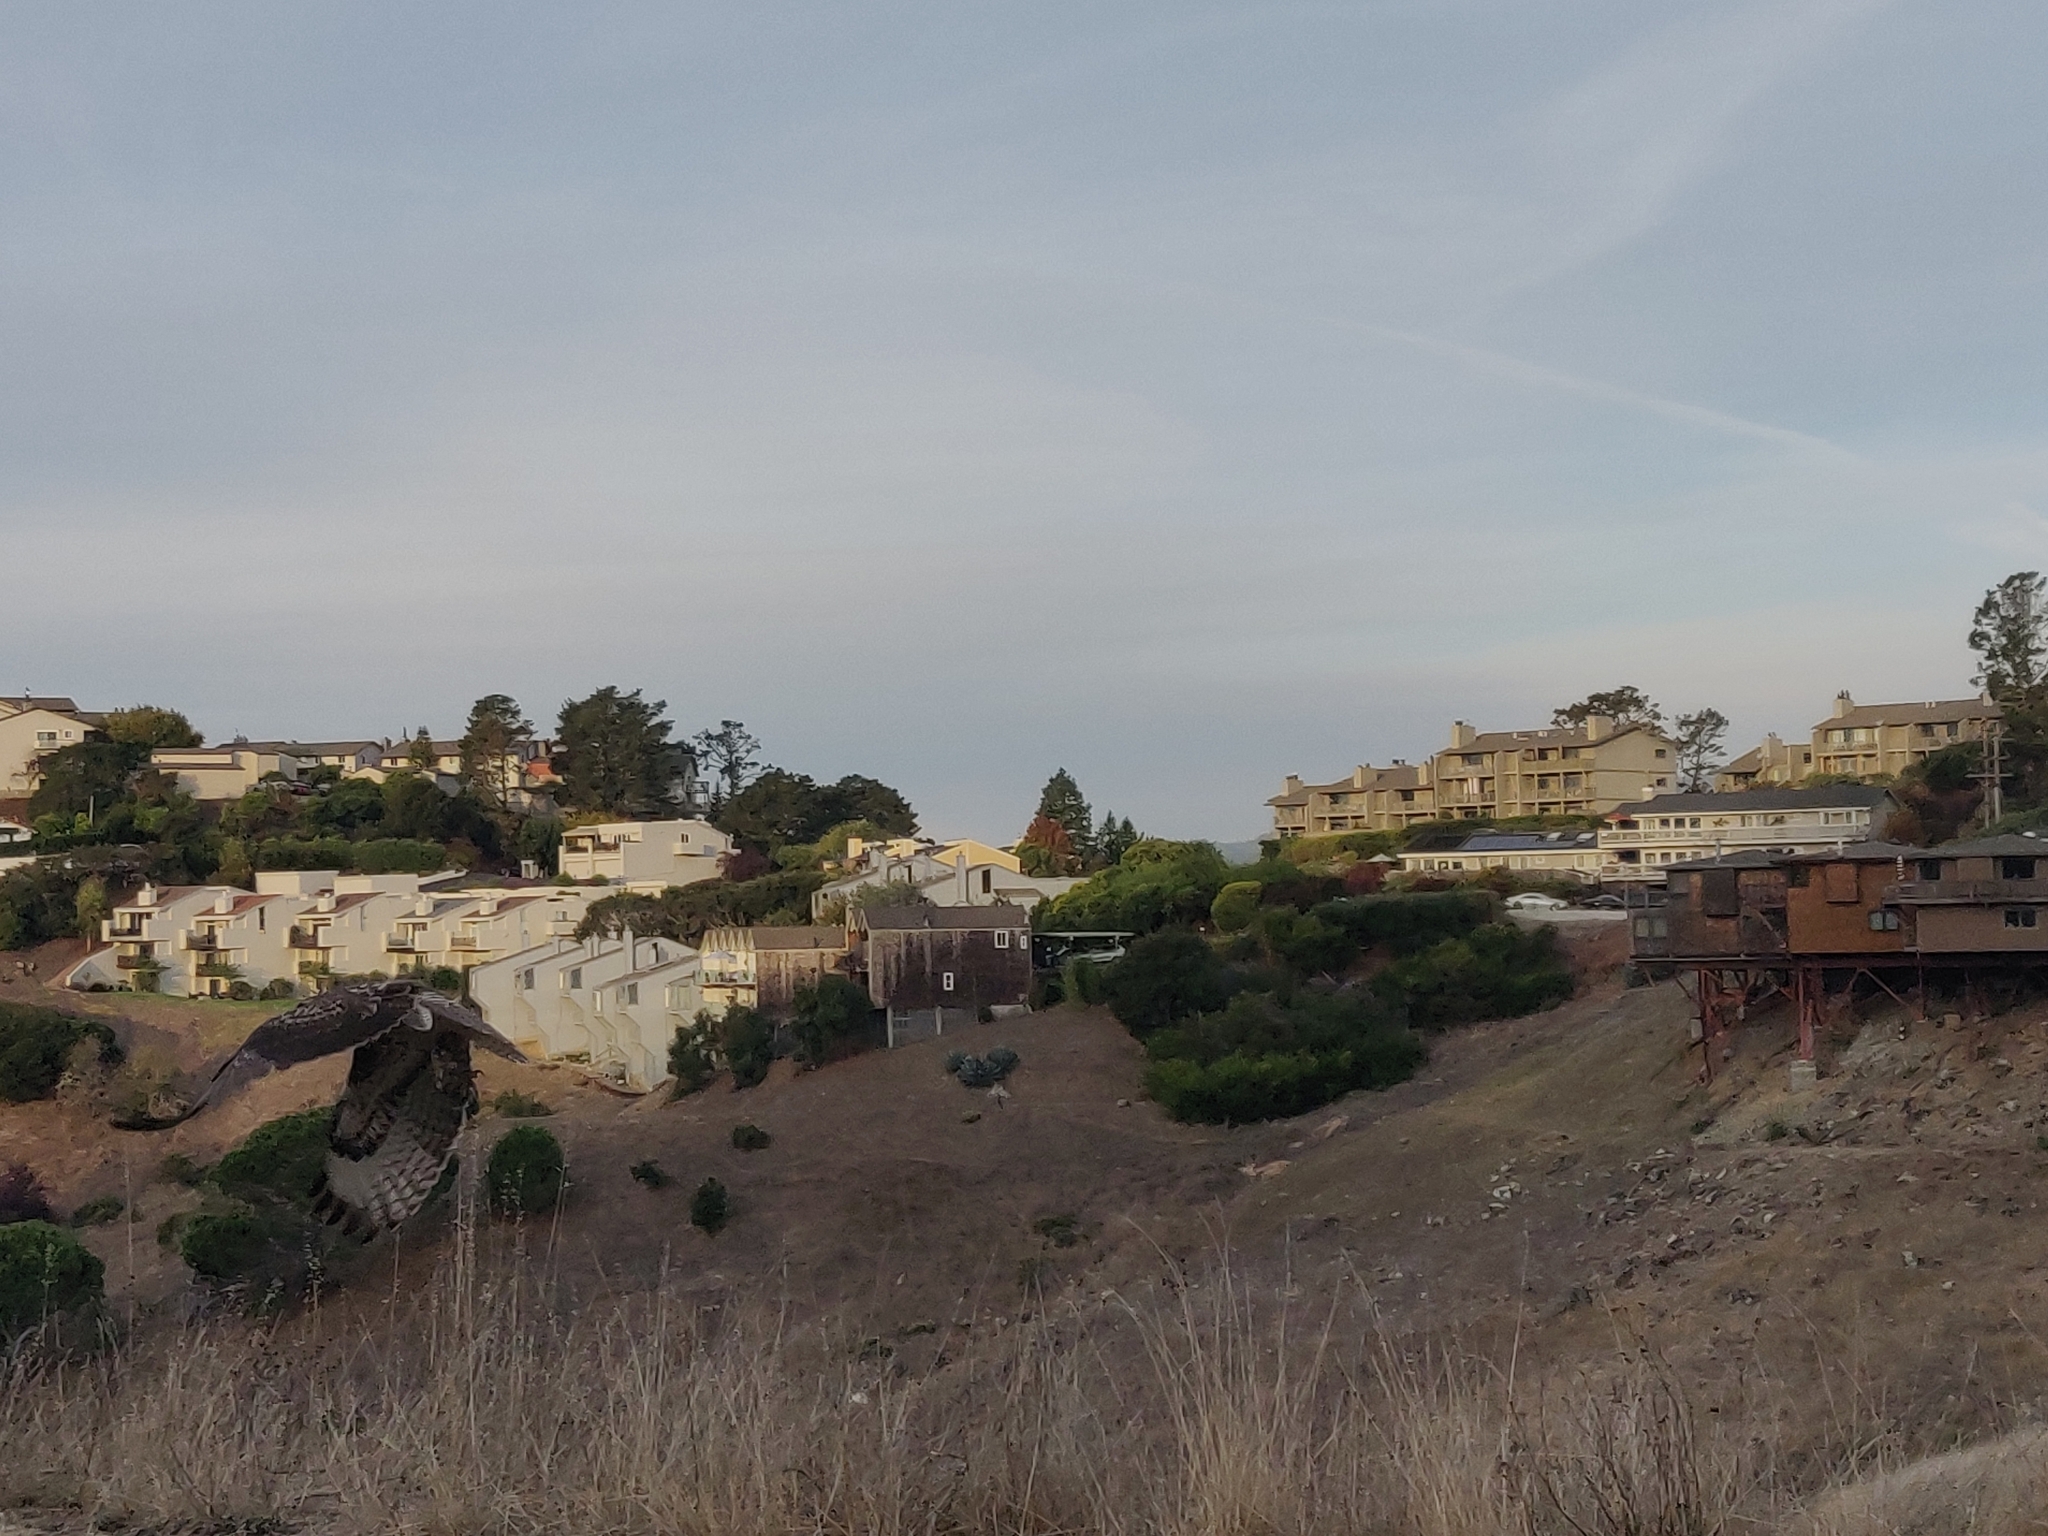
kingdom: Animalia
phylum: Chordata
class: Aves
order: Accipitriformes
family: Accipitridae
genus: Buteo
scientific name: Buteo jamaicensis
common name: Red-tailed hawk
